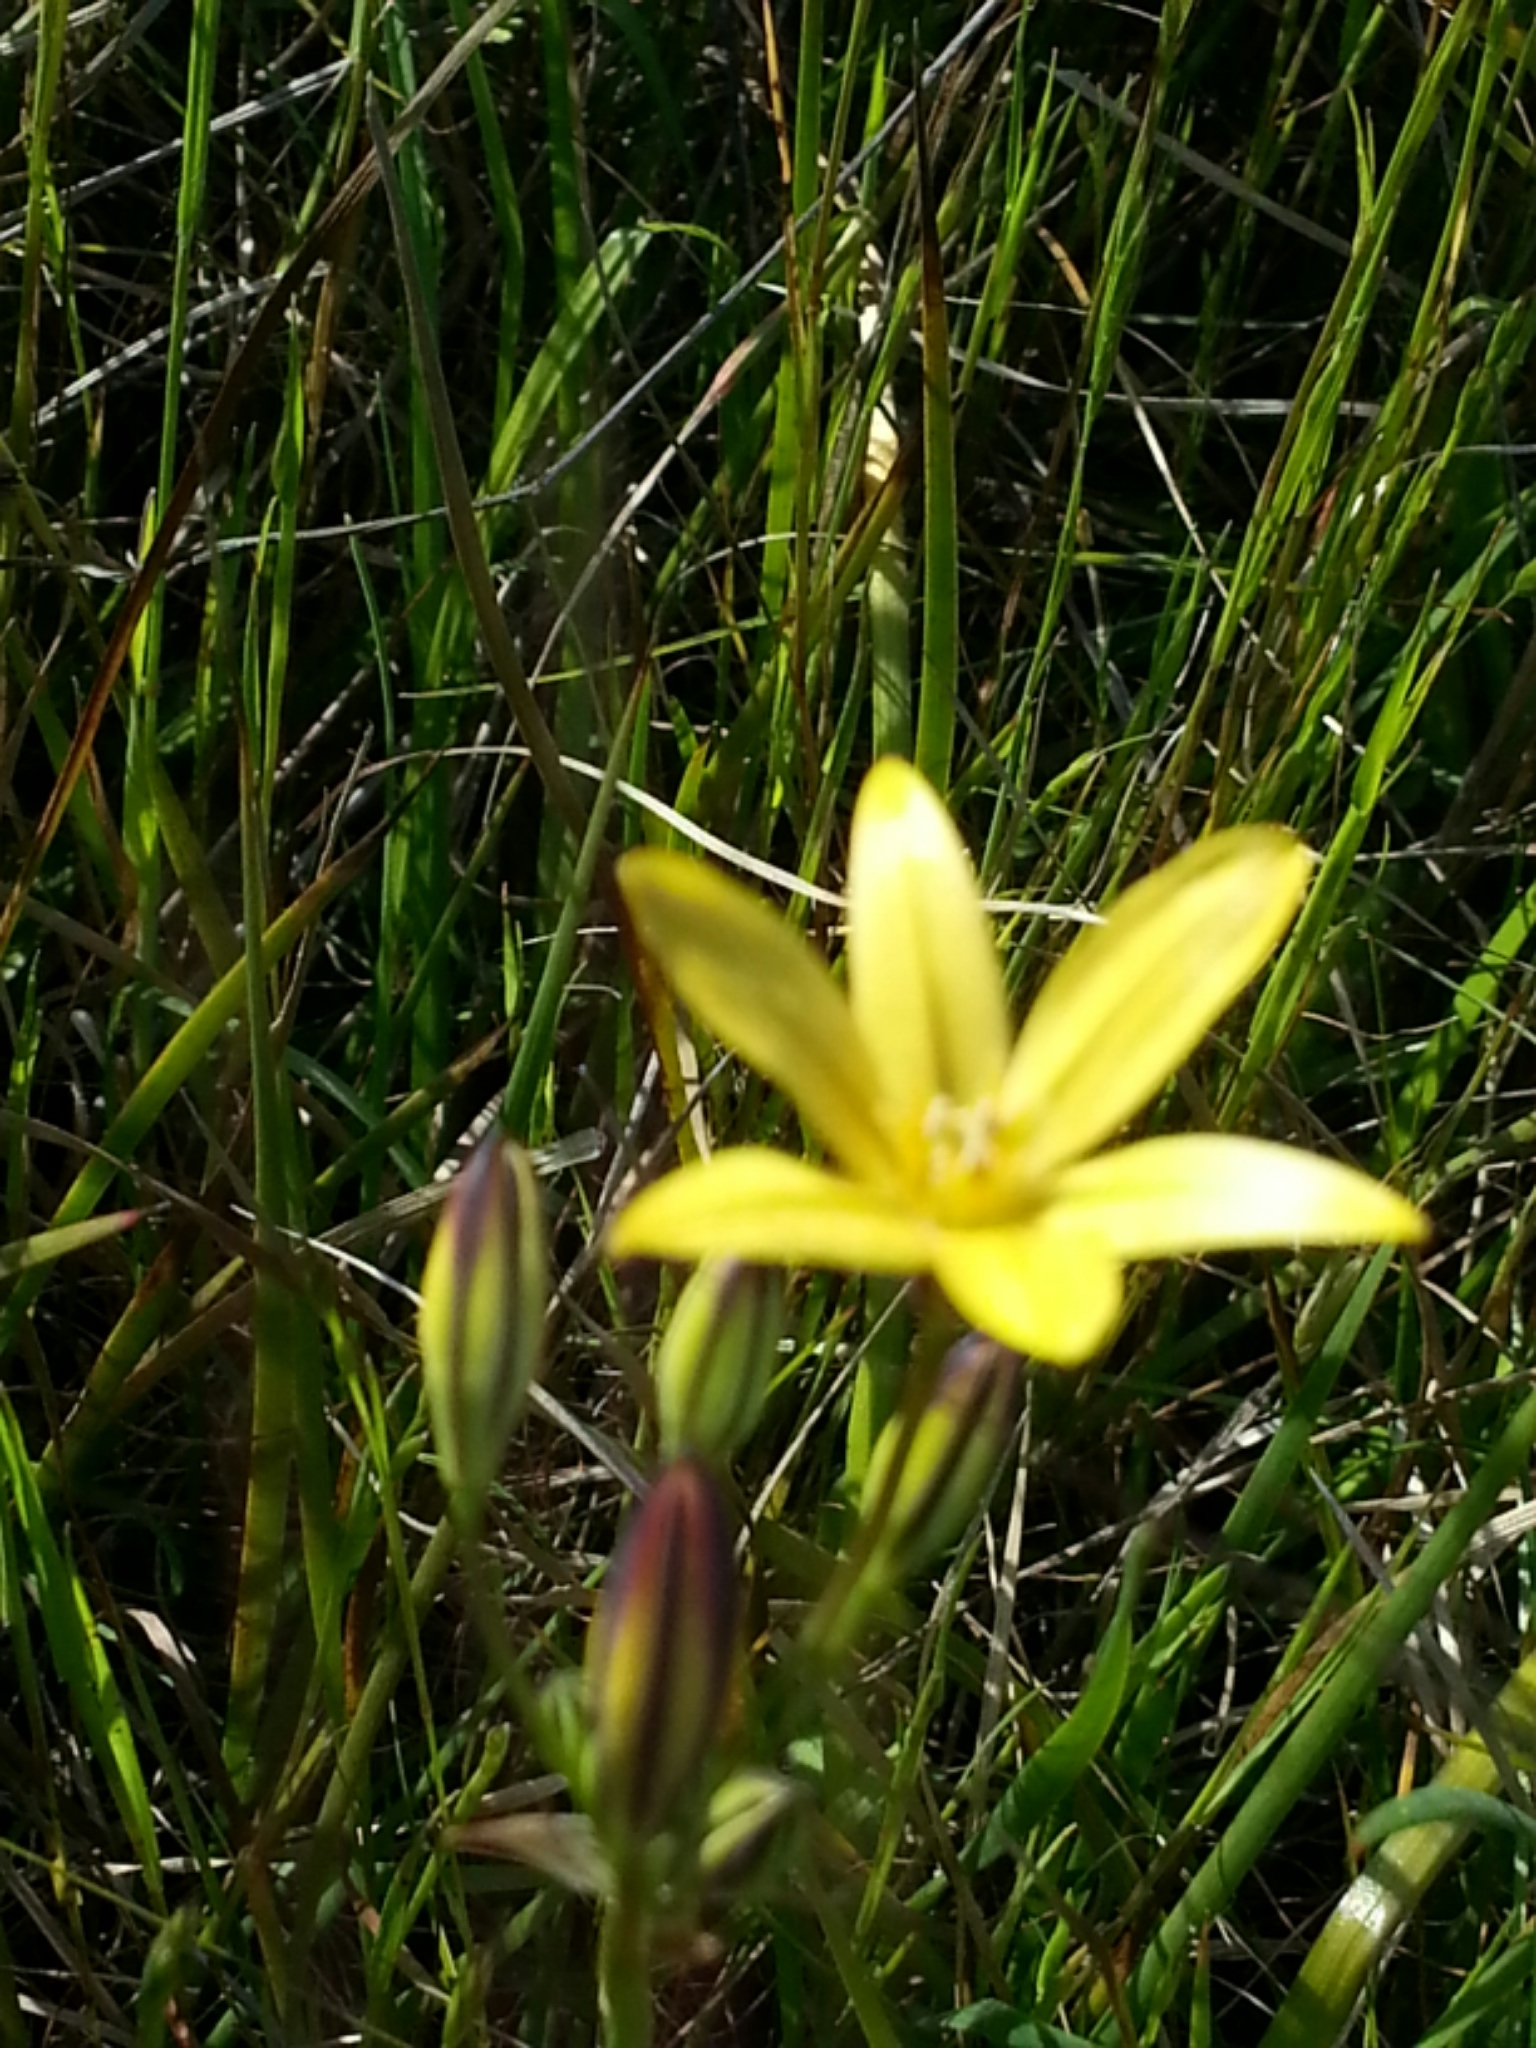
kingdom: Plantae
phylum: Tracheophyta
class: Liliopsida
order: Asparagales
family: Asparagaceae
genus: Triteleia
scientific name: Triteleia ixioides
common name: Yellow-brodiaea
